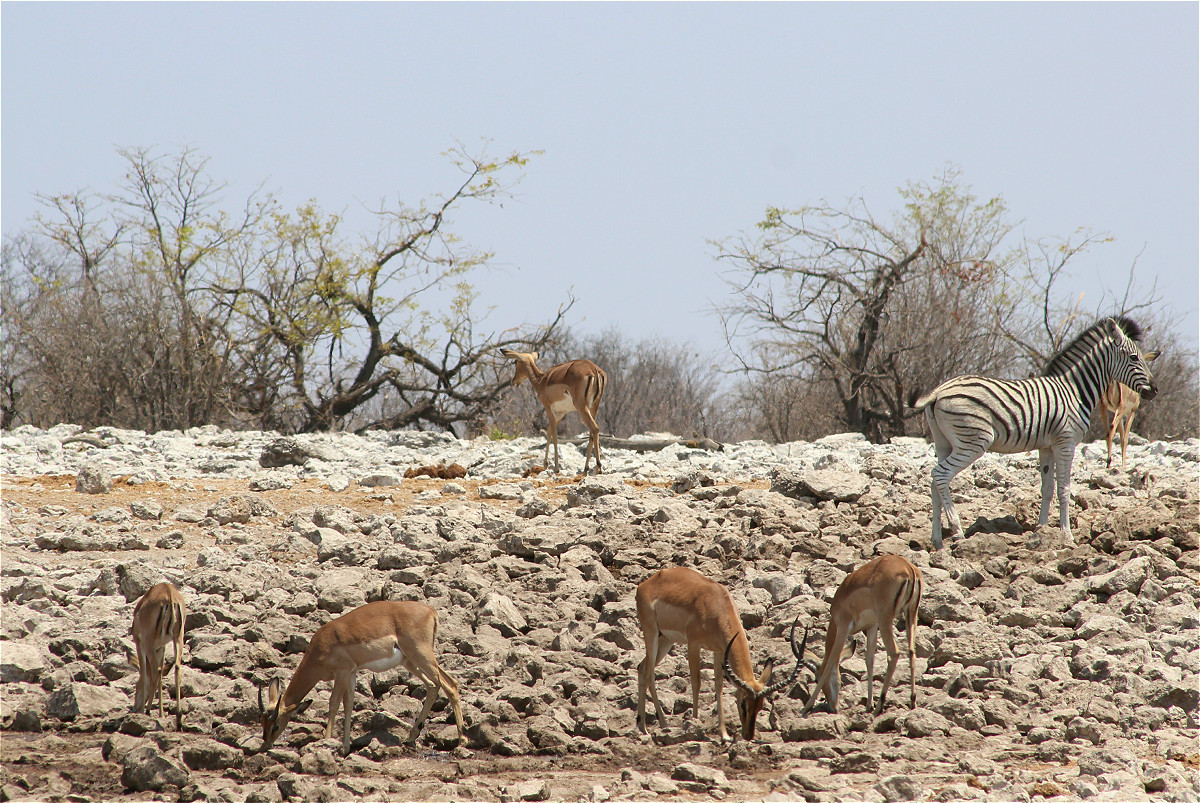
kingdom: Animalia
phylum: Chordata
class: Mammalia
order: Artiodactyla
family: Bovidae
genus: Aepyceros
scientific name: Aepyceros melampus
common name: Impala
